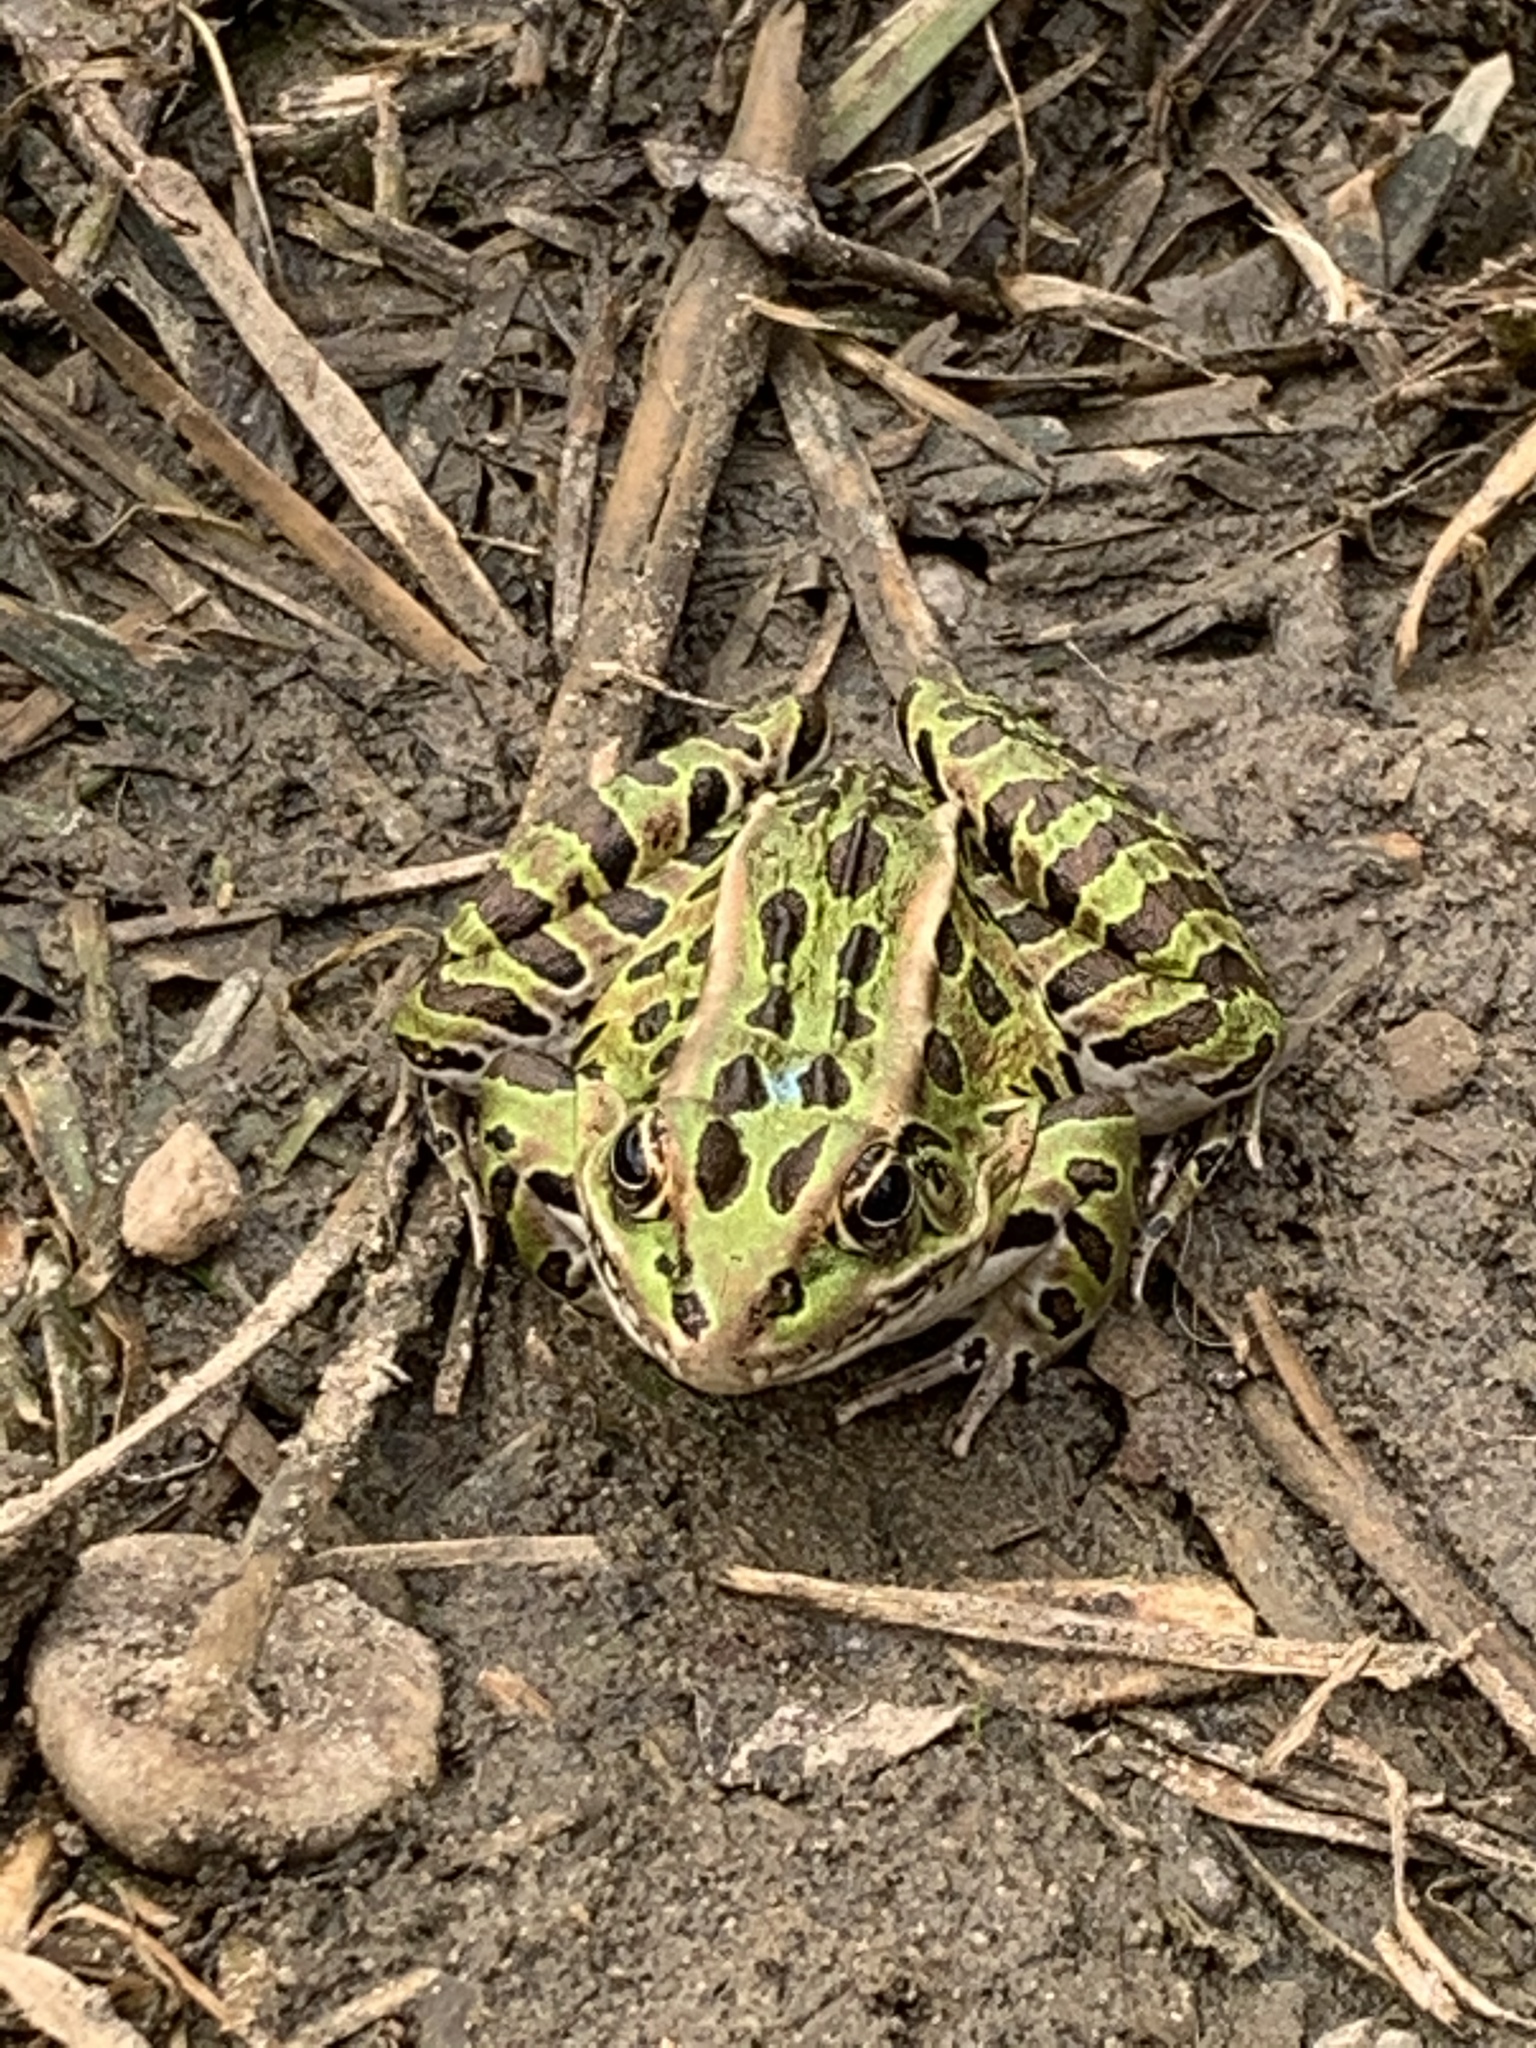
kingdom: Animalia
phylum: Chordata
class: Amphibia
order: Anura
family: Ranidae
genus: Lithobates
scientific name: Lithobates pipiens
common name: Northern leopard frog
